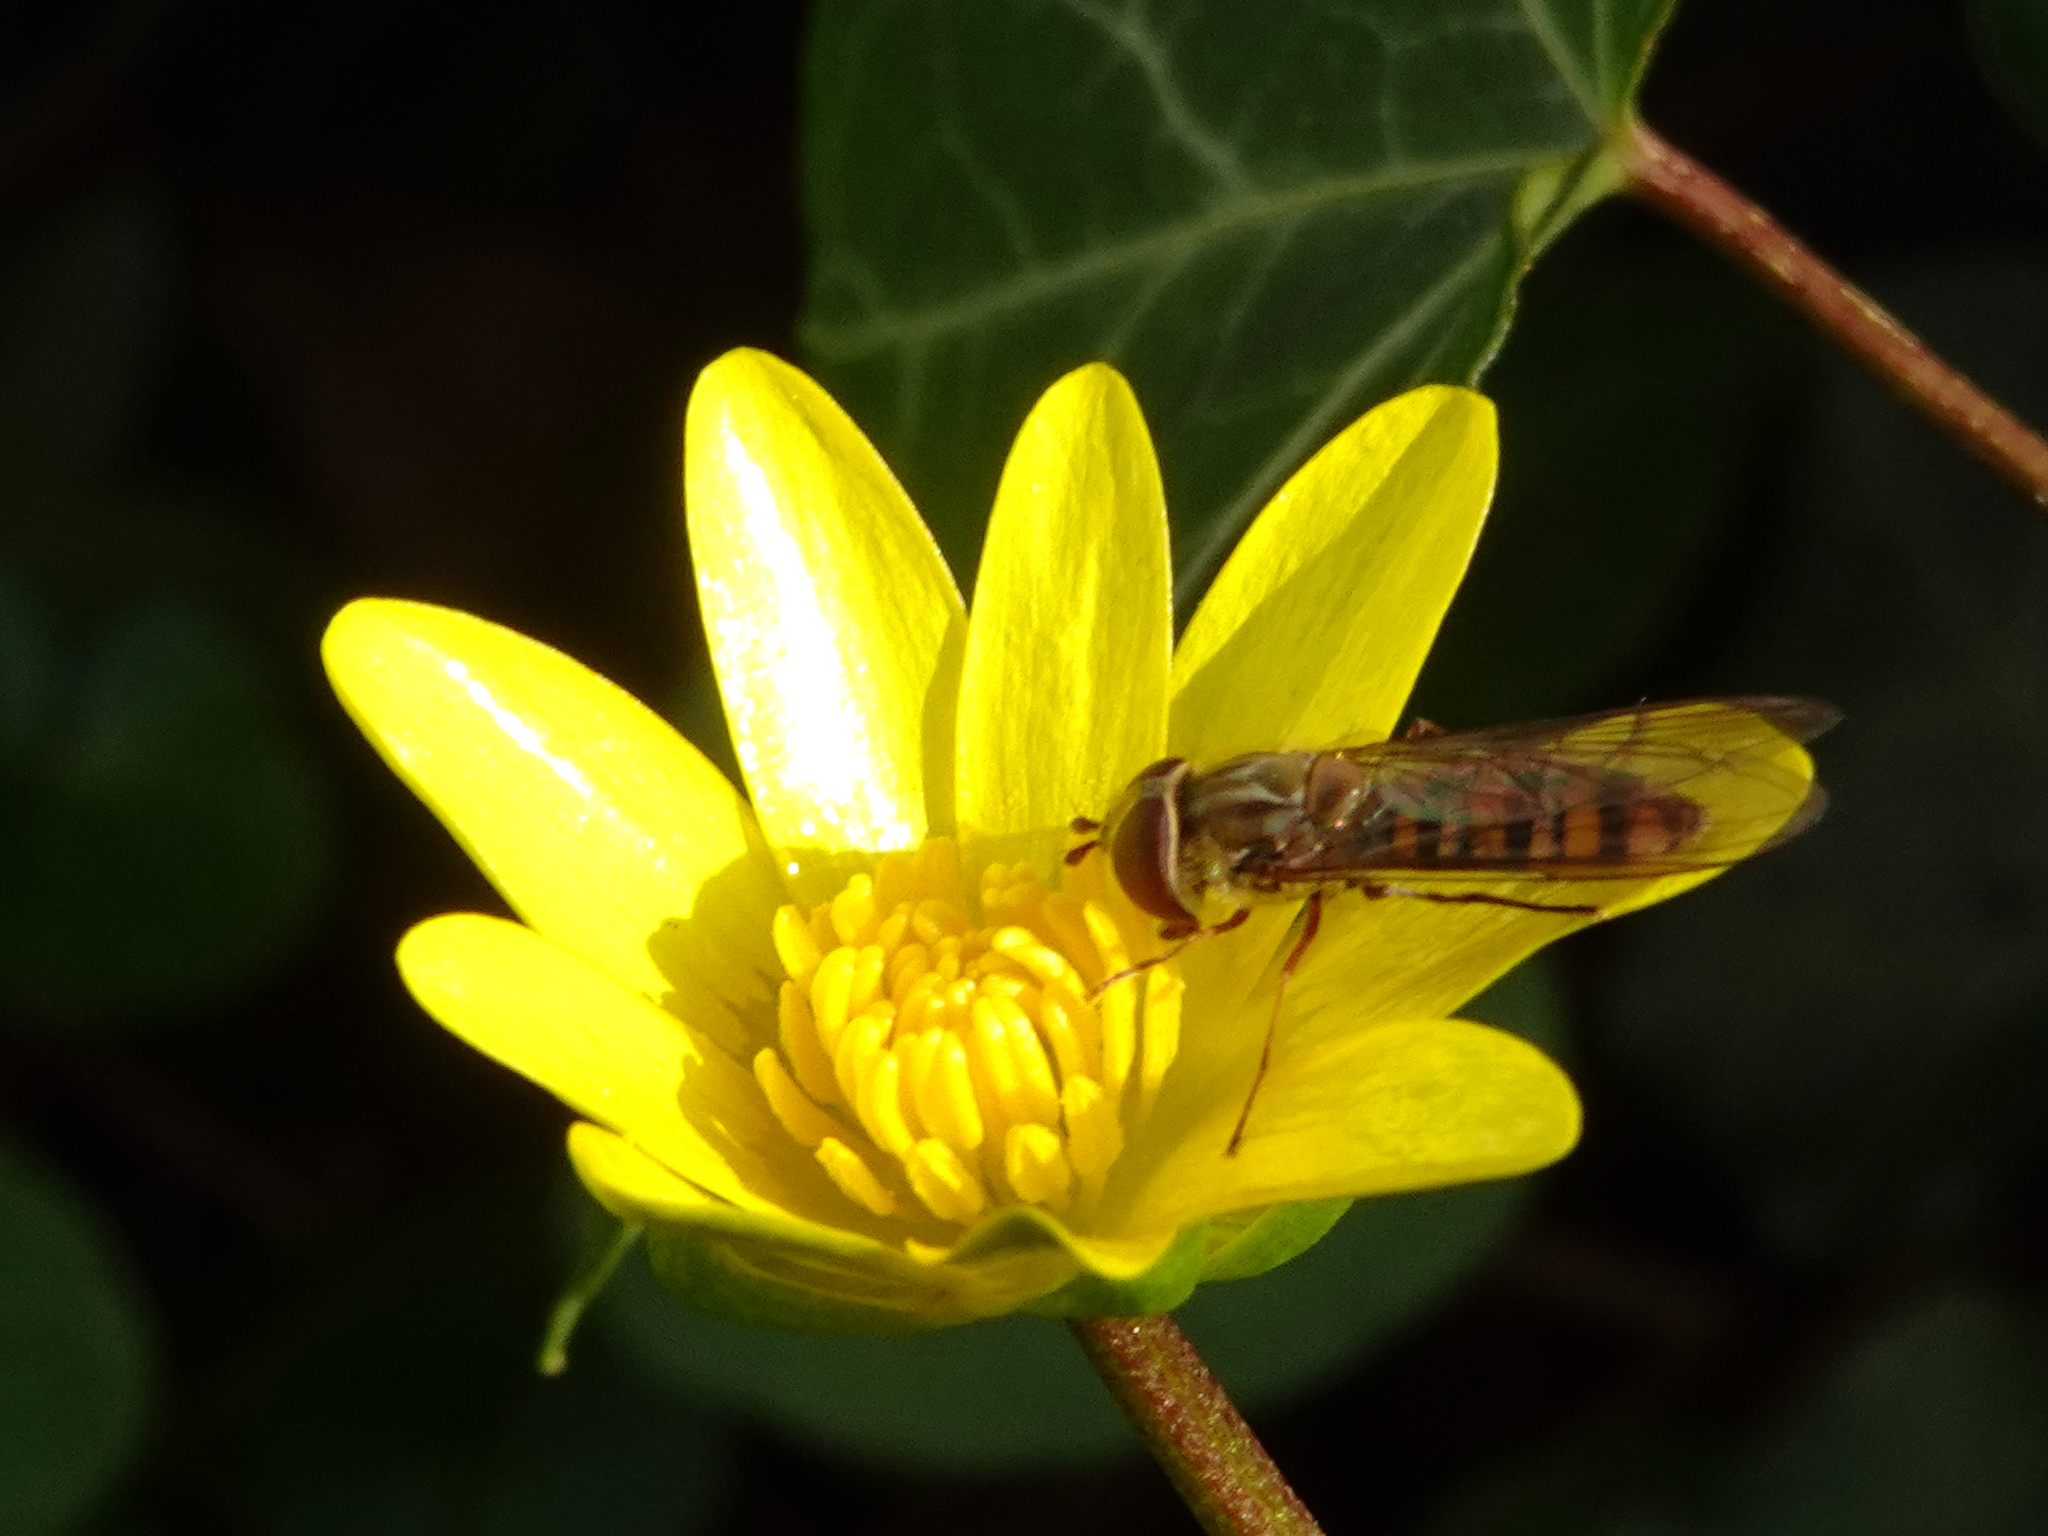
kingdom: Animalia
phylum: Arthropoda
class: Insecta
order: Diptera
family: Syrphidae
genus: Episyrphus
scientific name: Episyrphus balteatus
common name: Marmalade hoverfly
